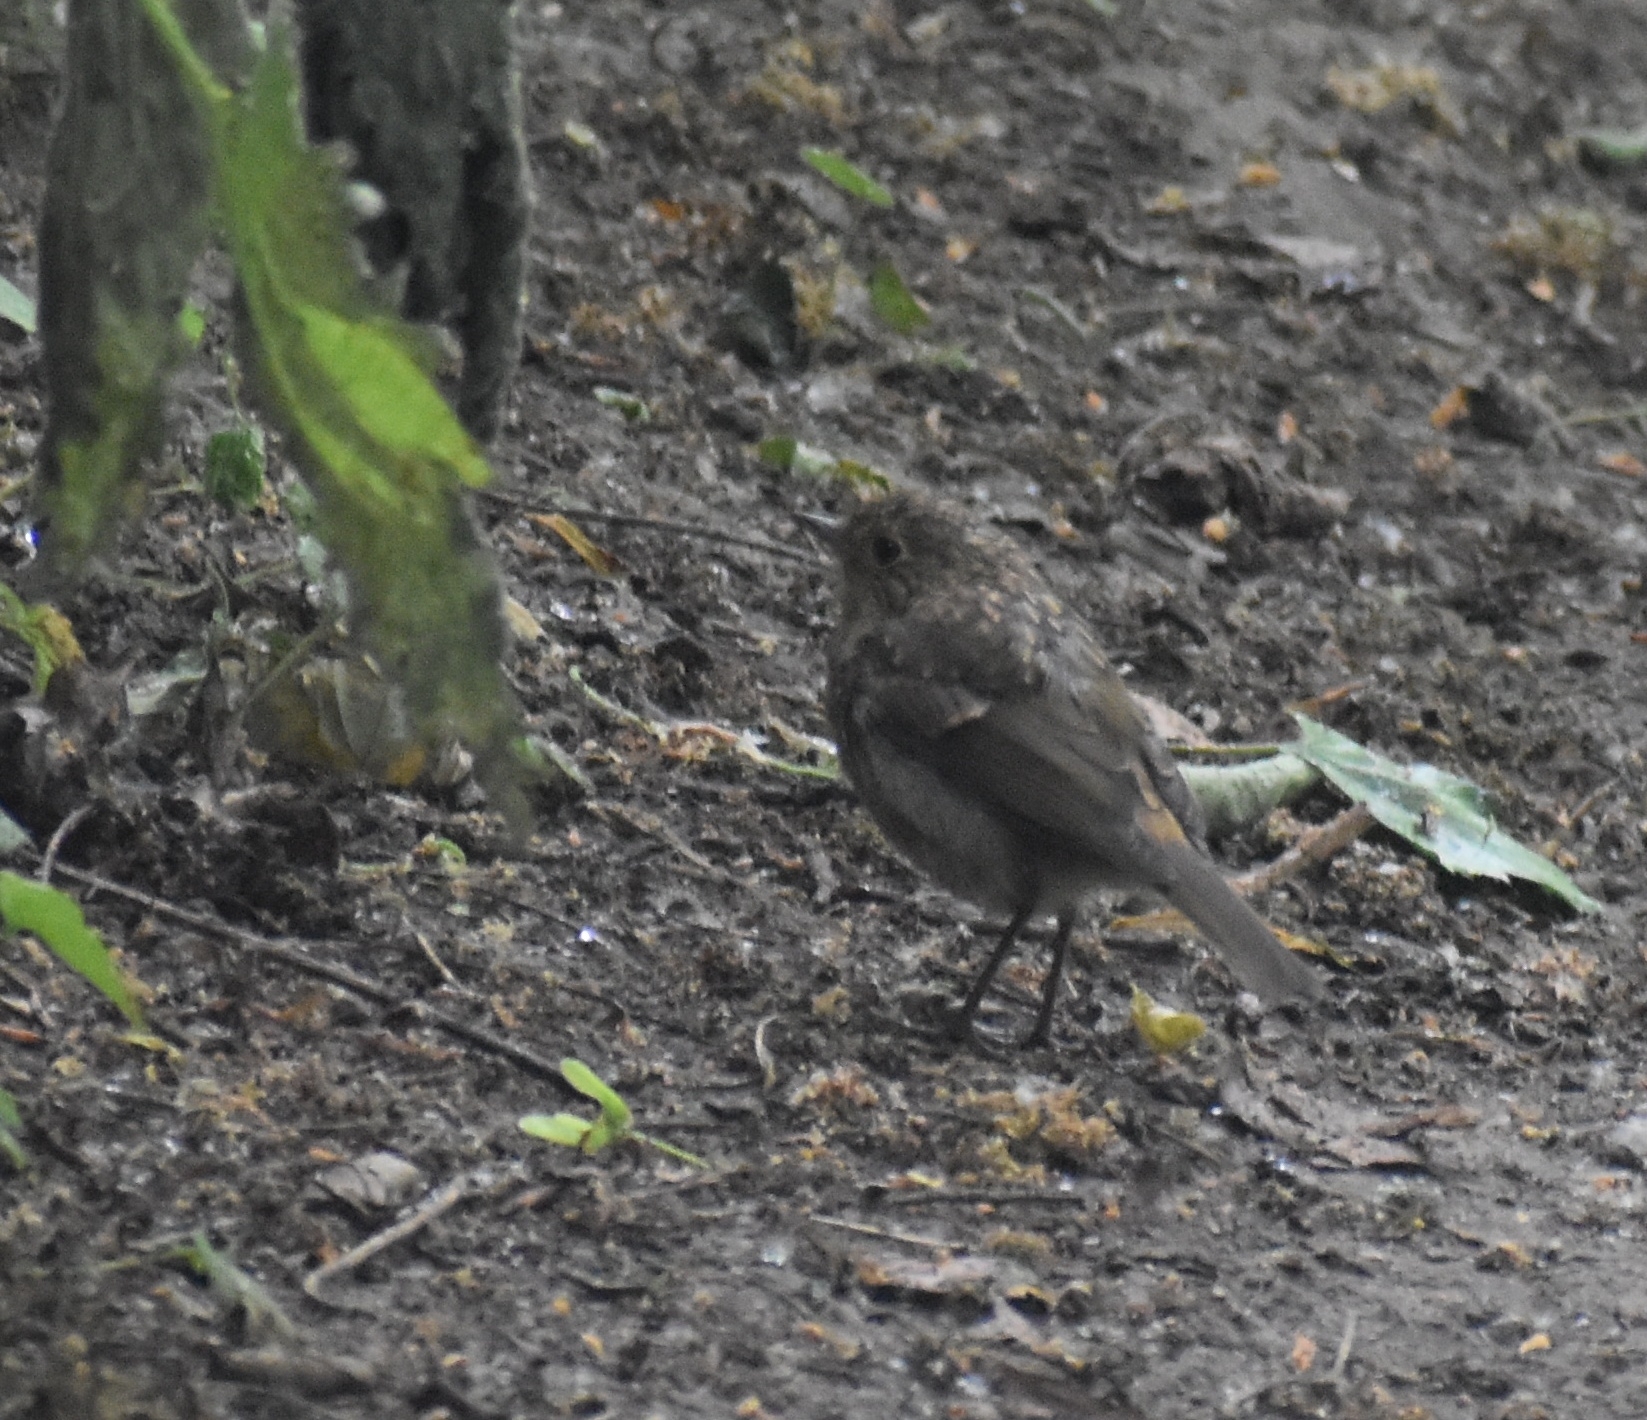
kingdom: Animalia
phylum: Chordata
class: Aves
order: Passeriformes
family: Muscicapidae
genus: Erithacus
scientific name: Erithacus rubecula
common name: European robin
